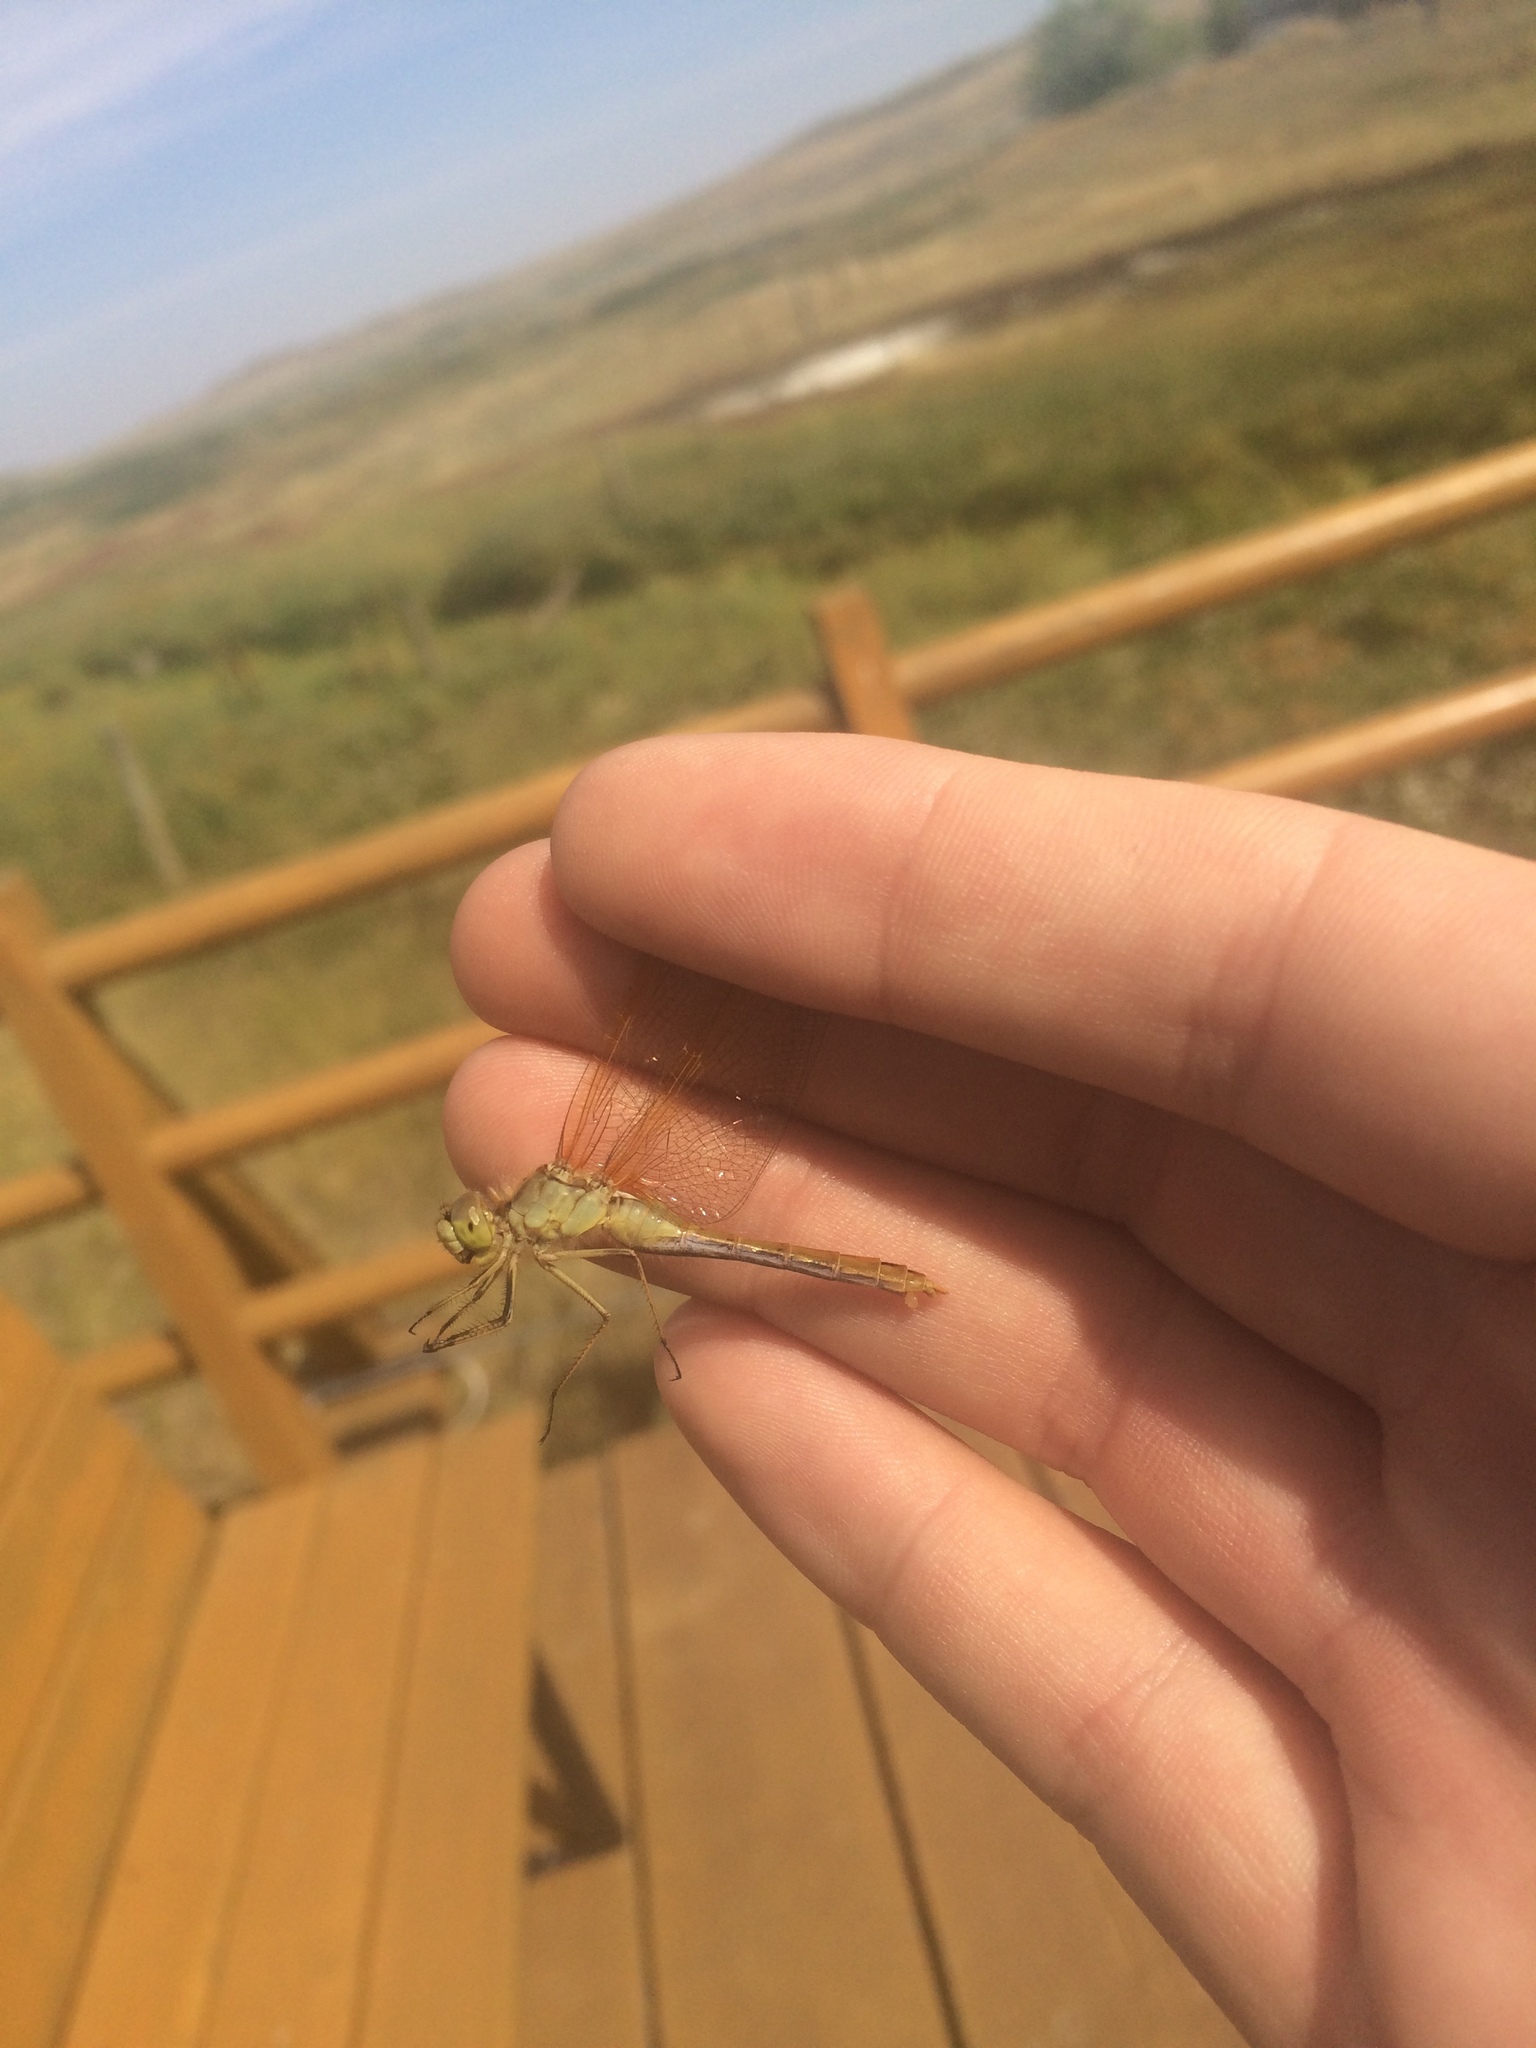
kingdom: Animalia
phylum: Arthropoda
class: Insecta
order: Odonata
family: Libellulidae
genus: Sympetrum
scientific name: Sympetrum costiferum
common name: Saffron-winged meadowhawk
